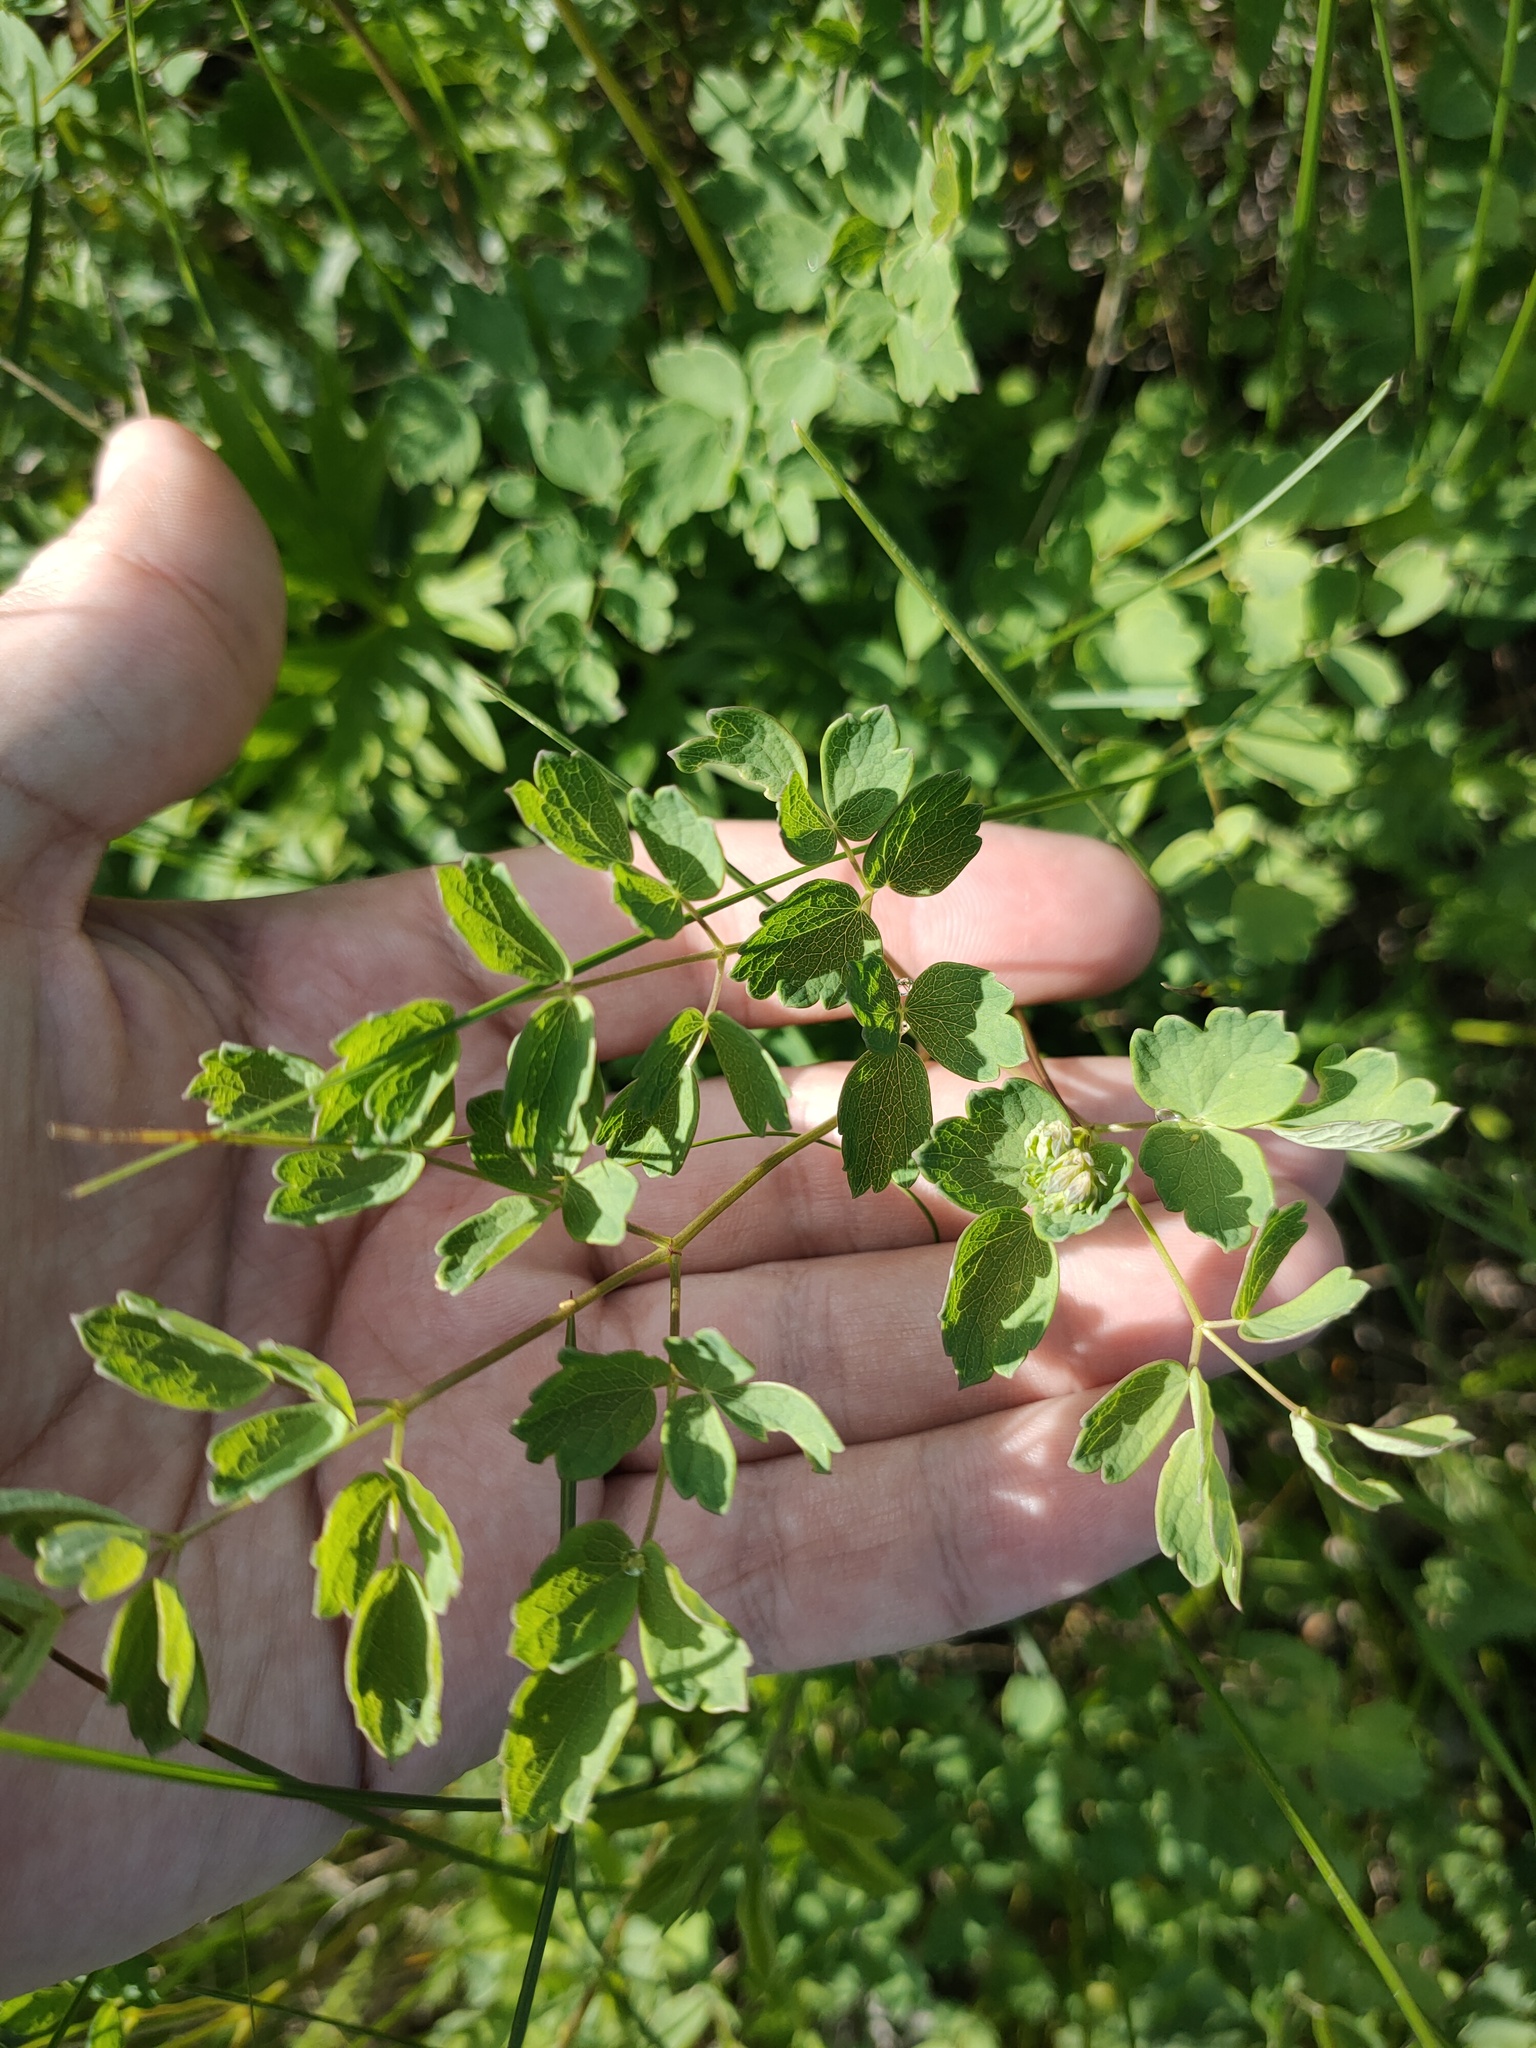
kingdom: Plantae
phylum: Tracheophyta
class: Magnoliopsida
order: Ranunculales
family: Ranunculaceae
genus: Thalictrum
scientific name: Thalictrum minus
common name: Lesser meadow-rue
